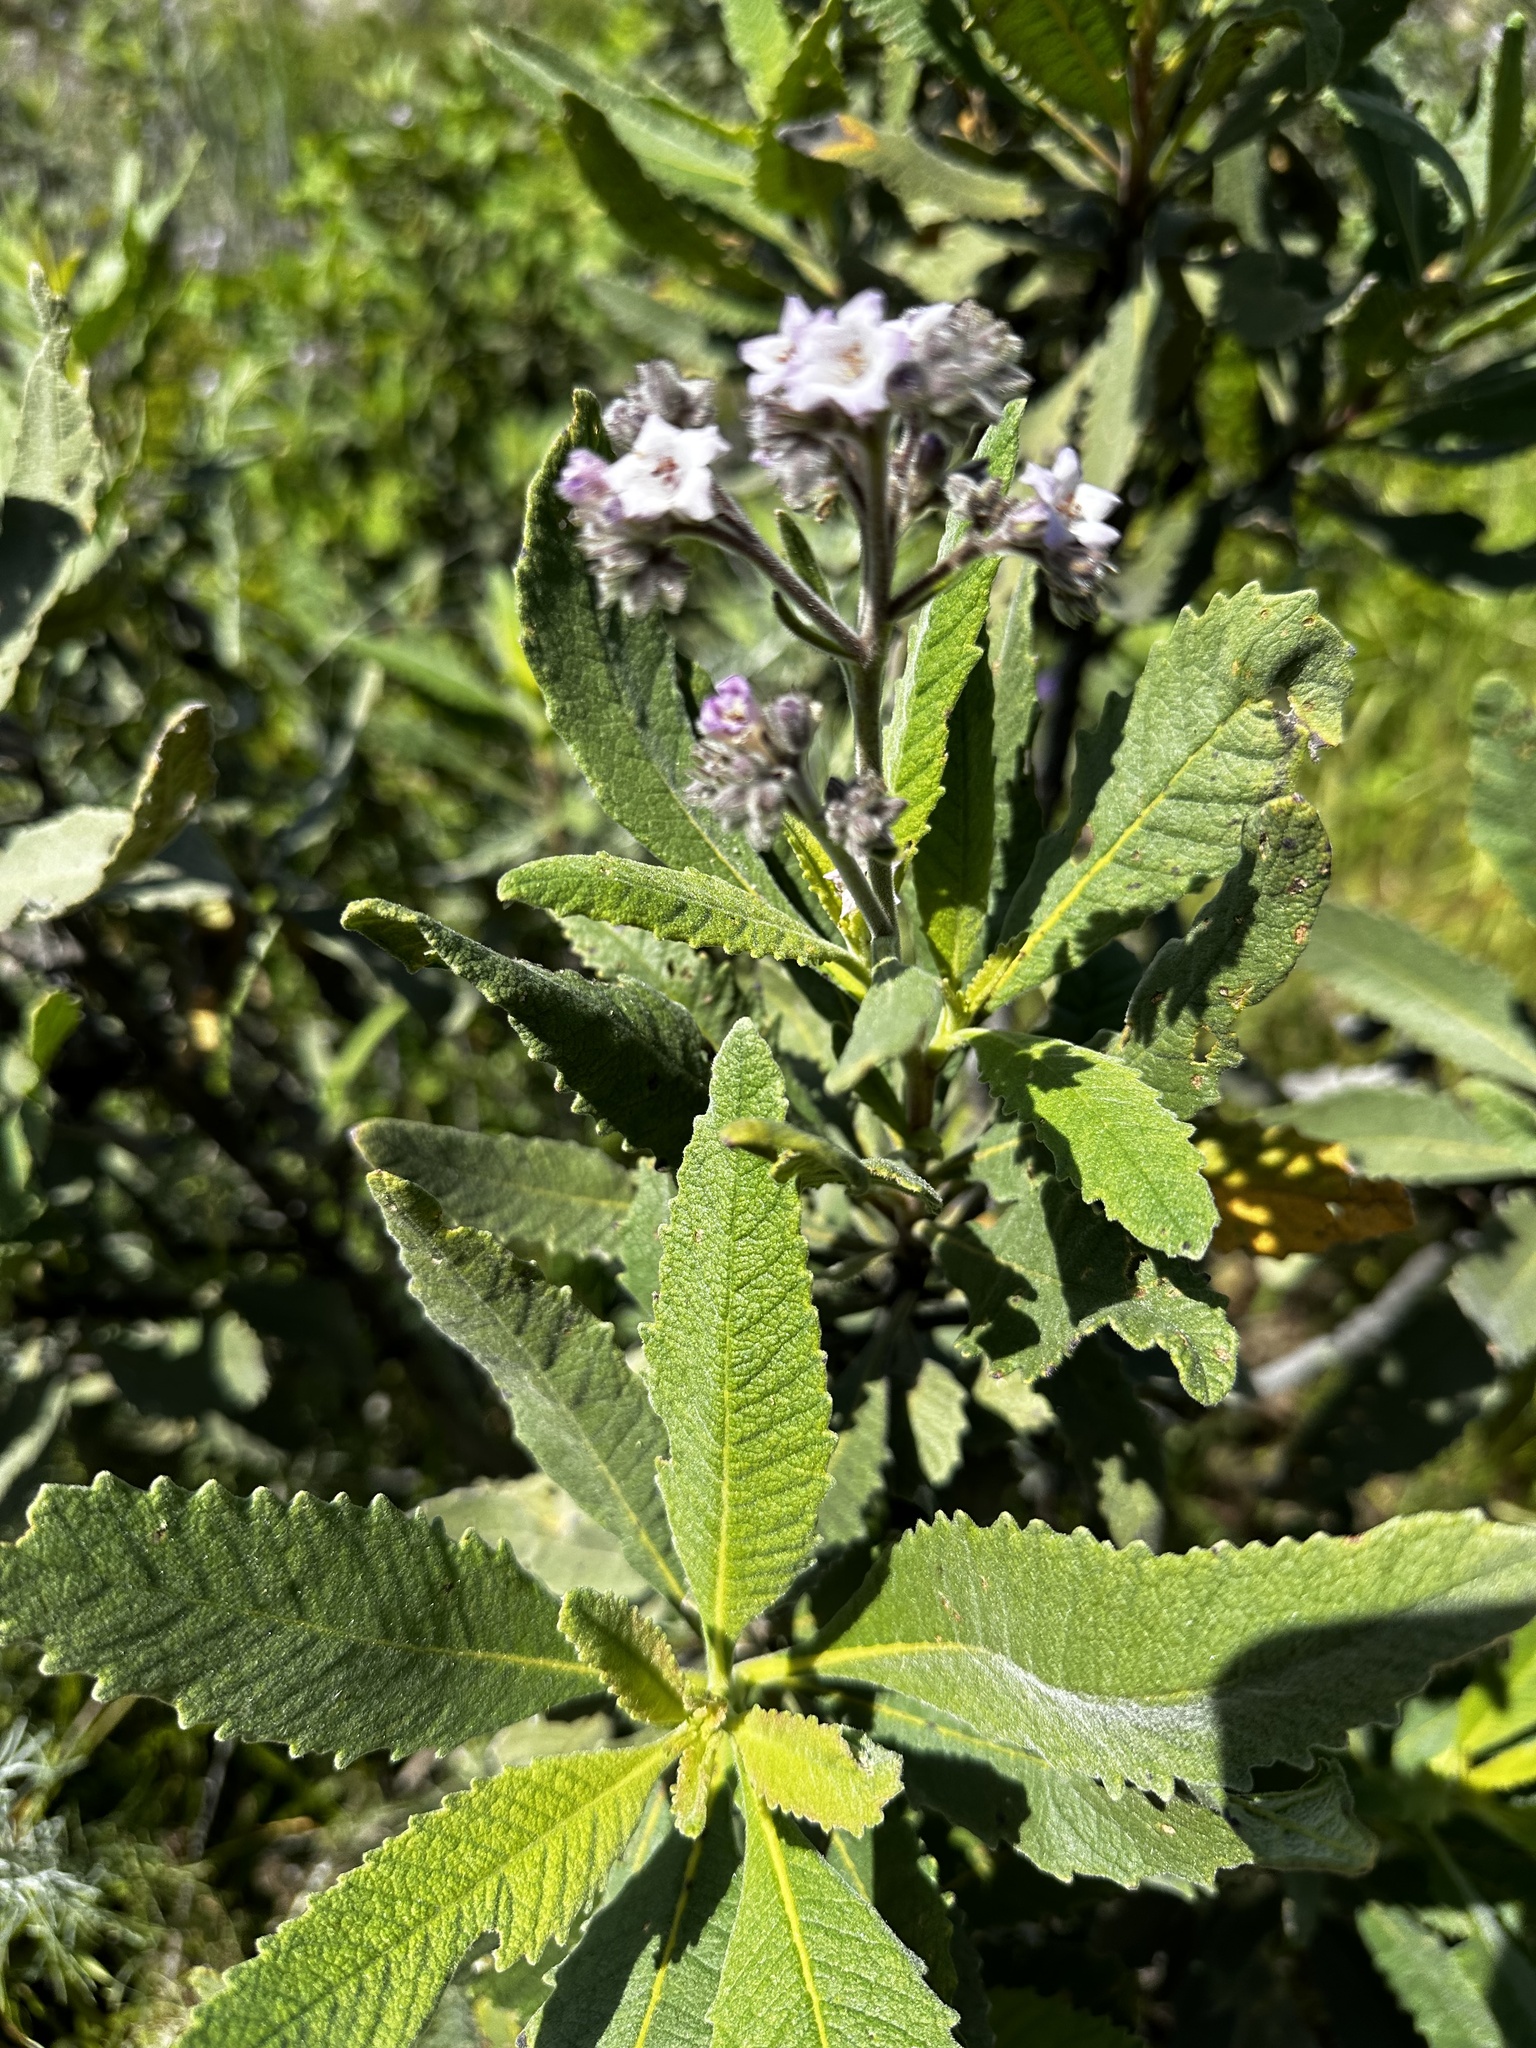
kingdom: Plantae
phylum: Tracheophyta
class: Magnoliopsida
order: Boraginales
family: Namaceae
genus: Eriodictyon
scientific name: Eriodictyon crassifolium
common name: Thick-leaf yerba-santa
